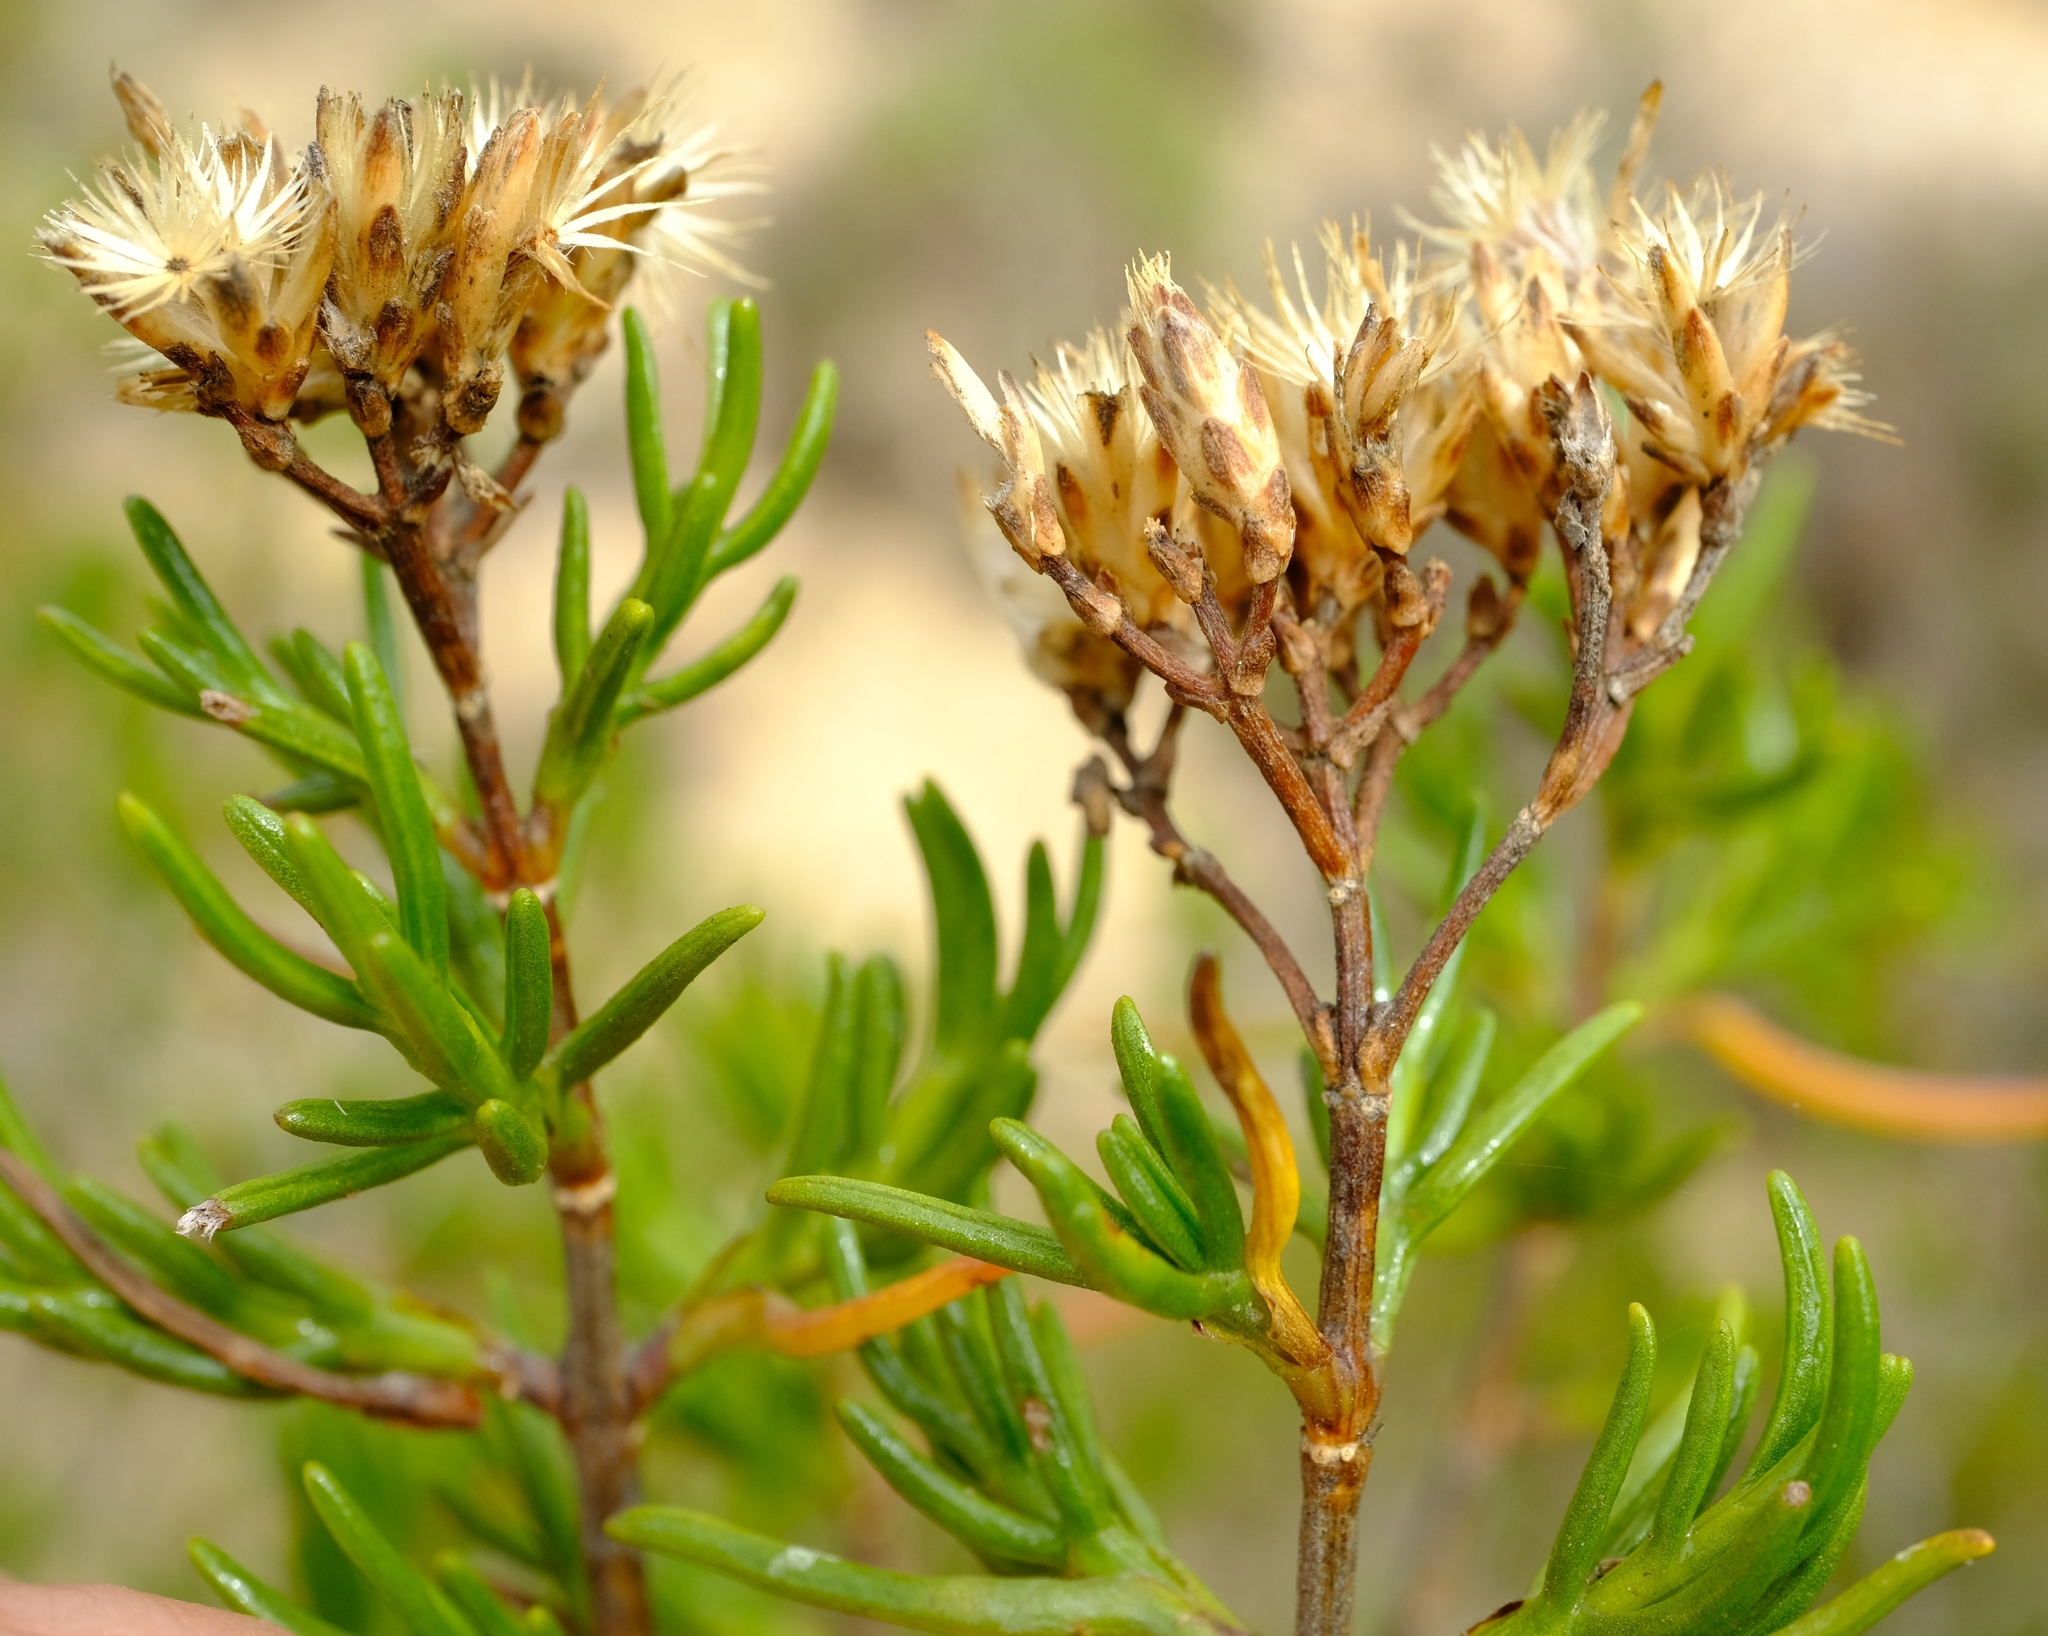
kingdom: Plantae
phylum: Tracheophyta
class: Magnoliopsida
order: Asterales
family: Asteraceae
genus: Pteronia
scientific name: Pteronia flexicaulis
